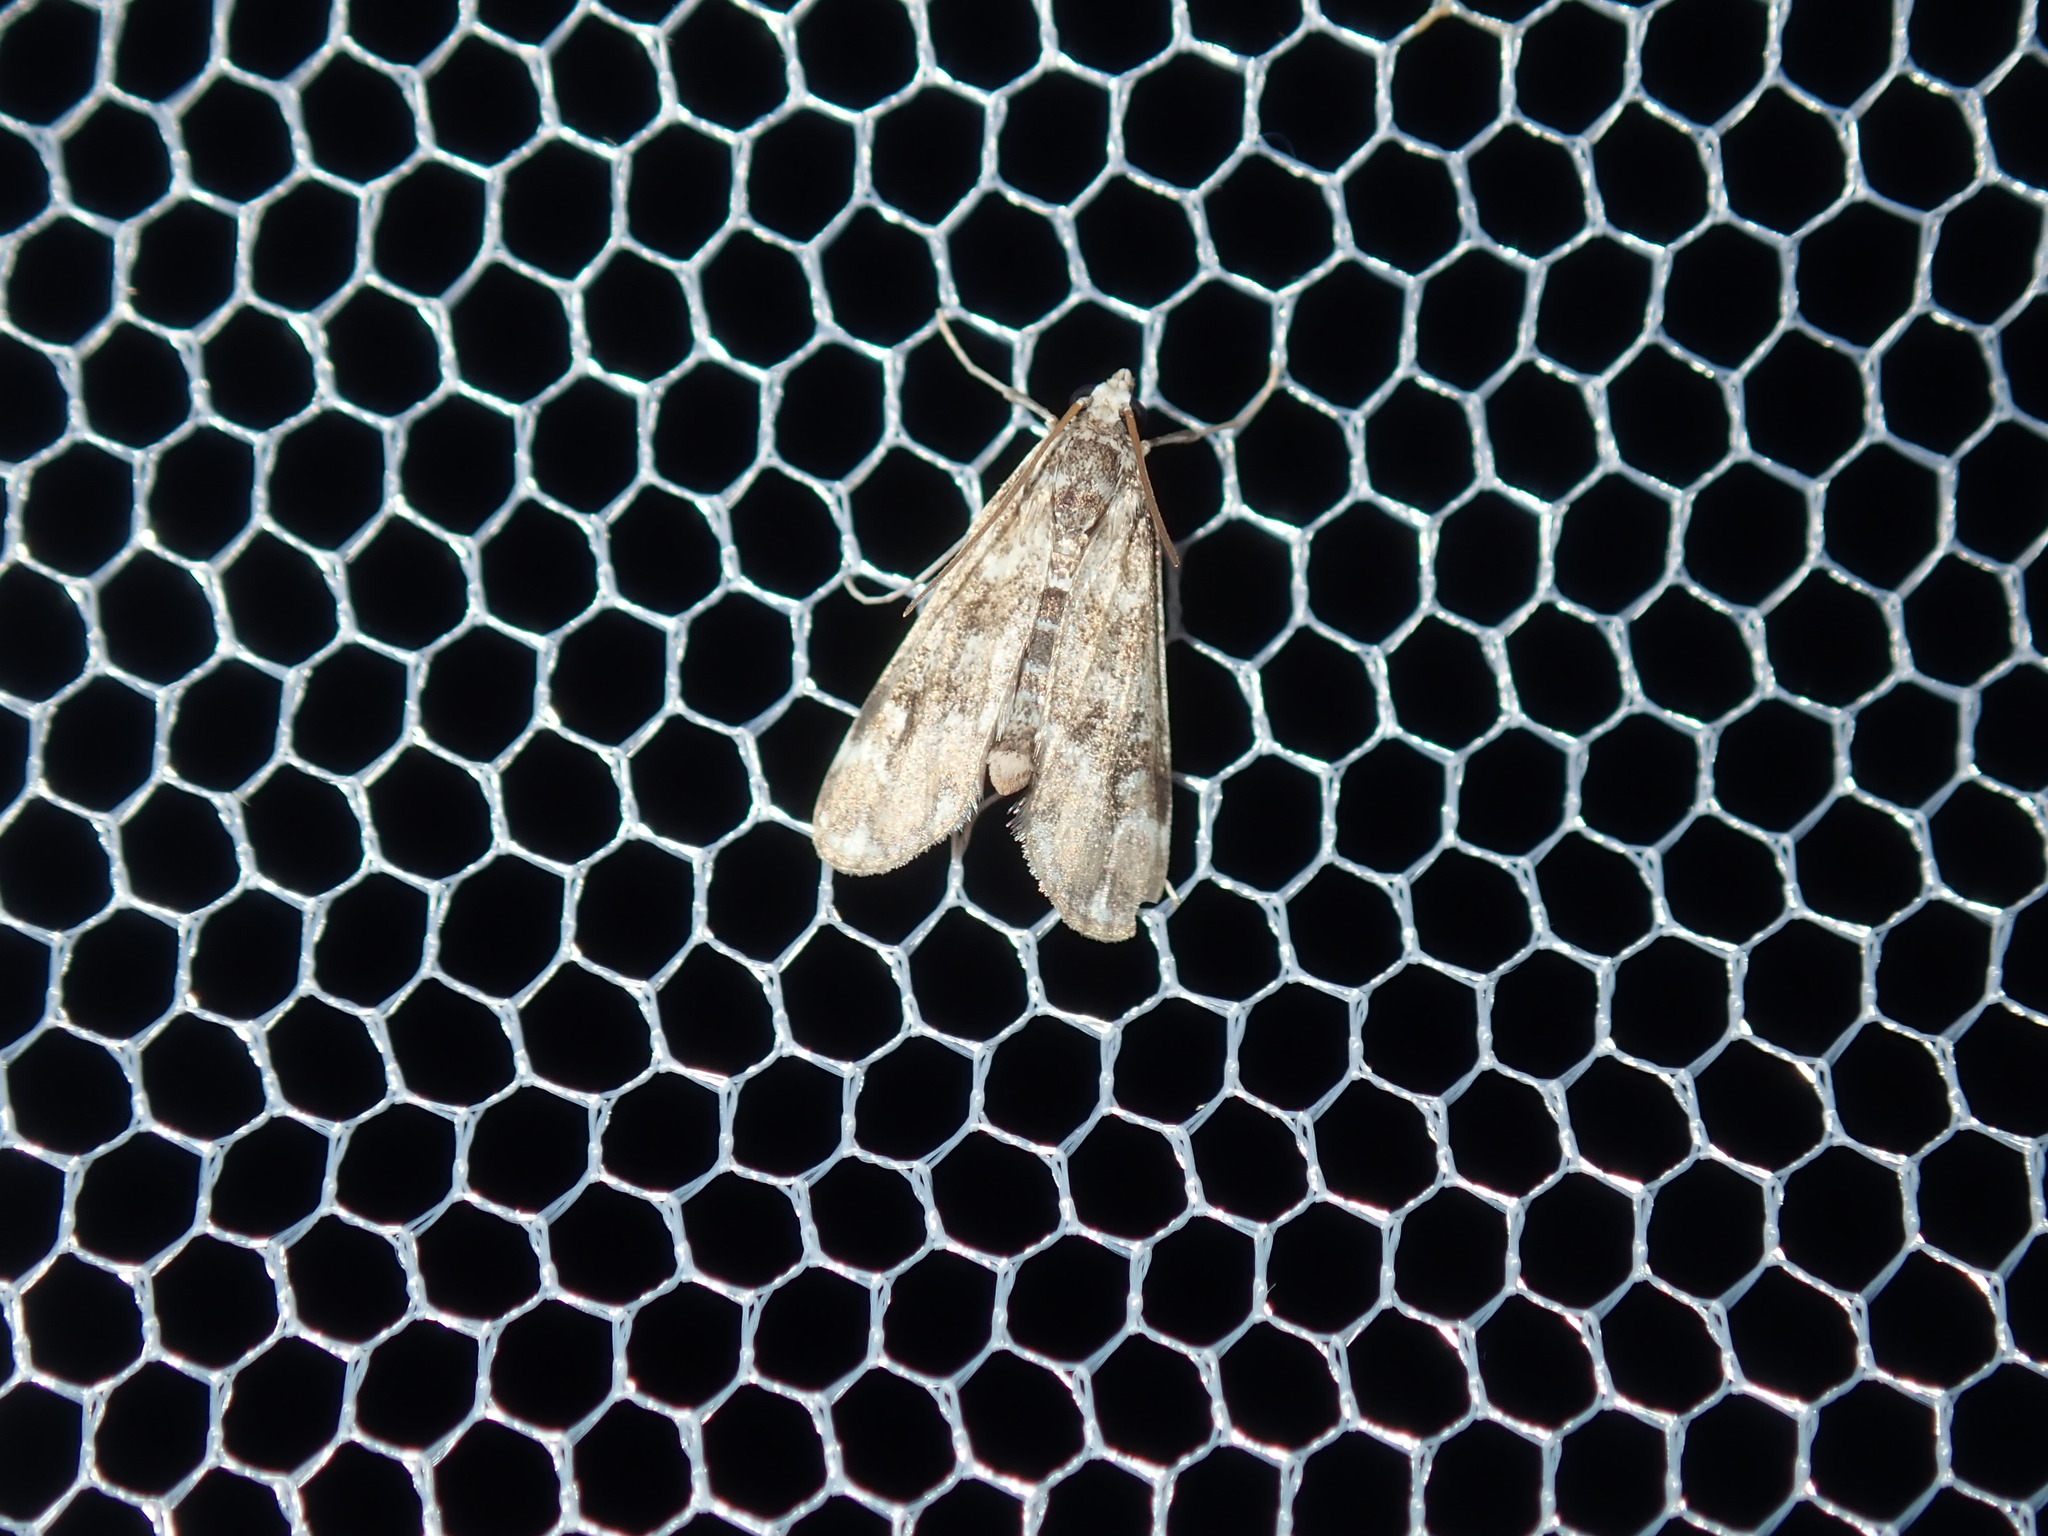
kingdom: Animalia
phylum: Arthropoda
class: Insecta
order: Lepidoptera
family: Crambidae
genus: Hygraula
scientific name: Hygraula nitens
